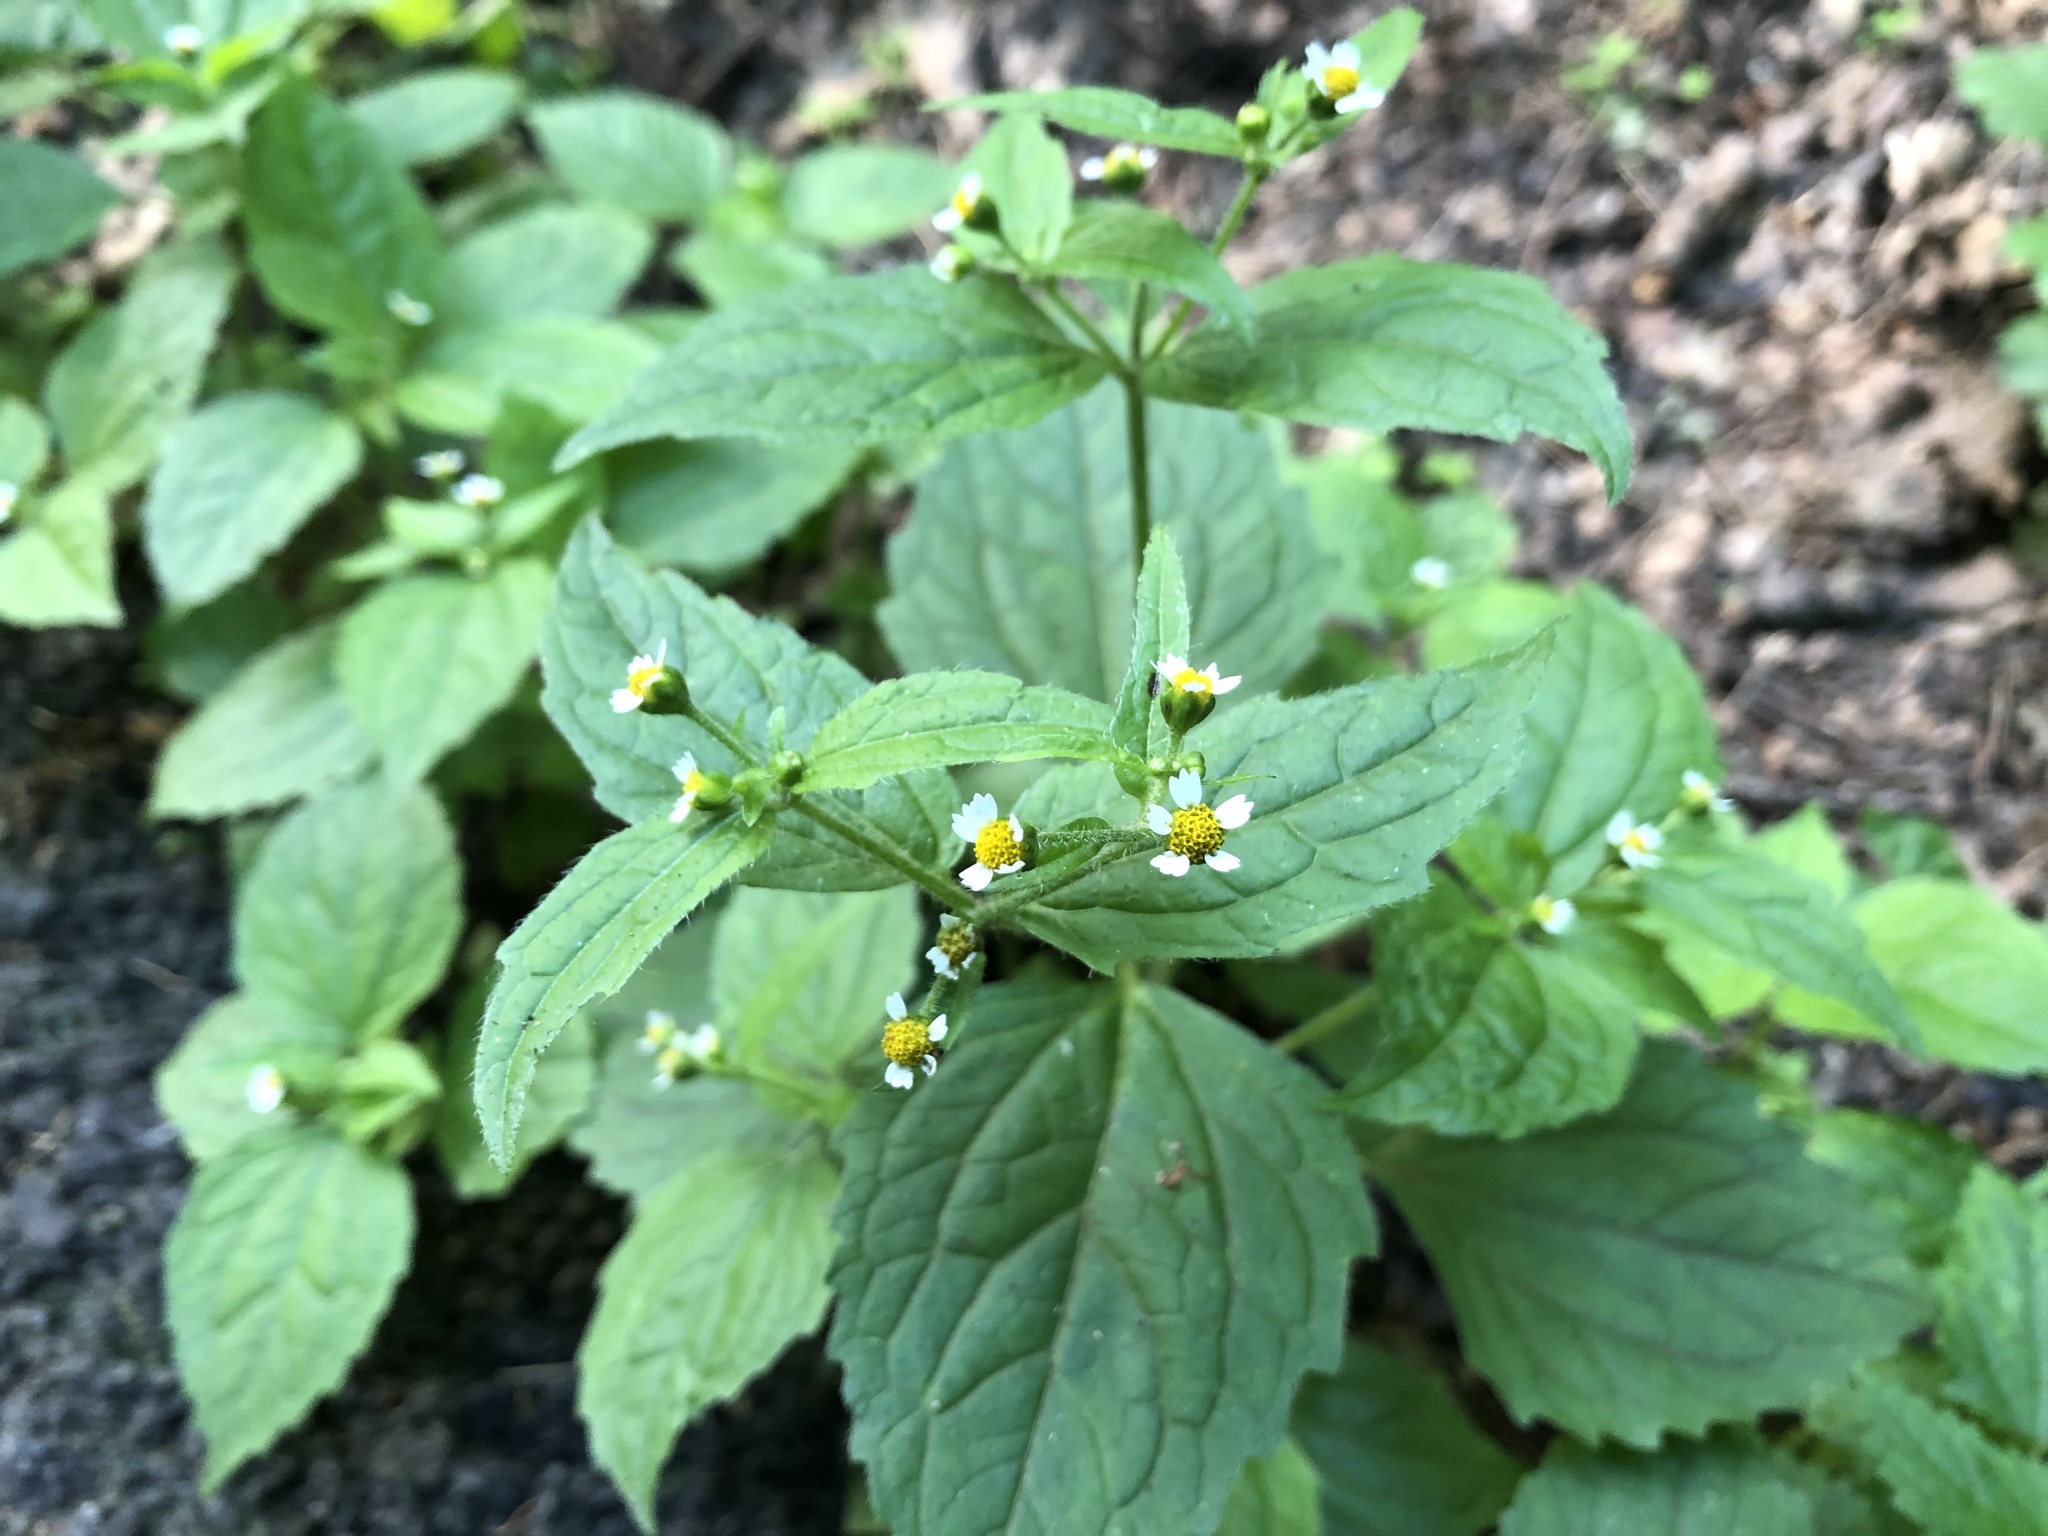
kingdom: Plantae
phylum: Tracheophyta
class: Magnoliopsida
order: Asterales
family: Asteraceae
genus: Galinsoga
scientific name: Galinsoga quadriradiata
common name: Shaggy soldier
